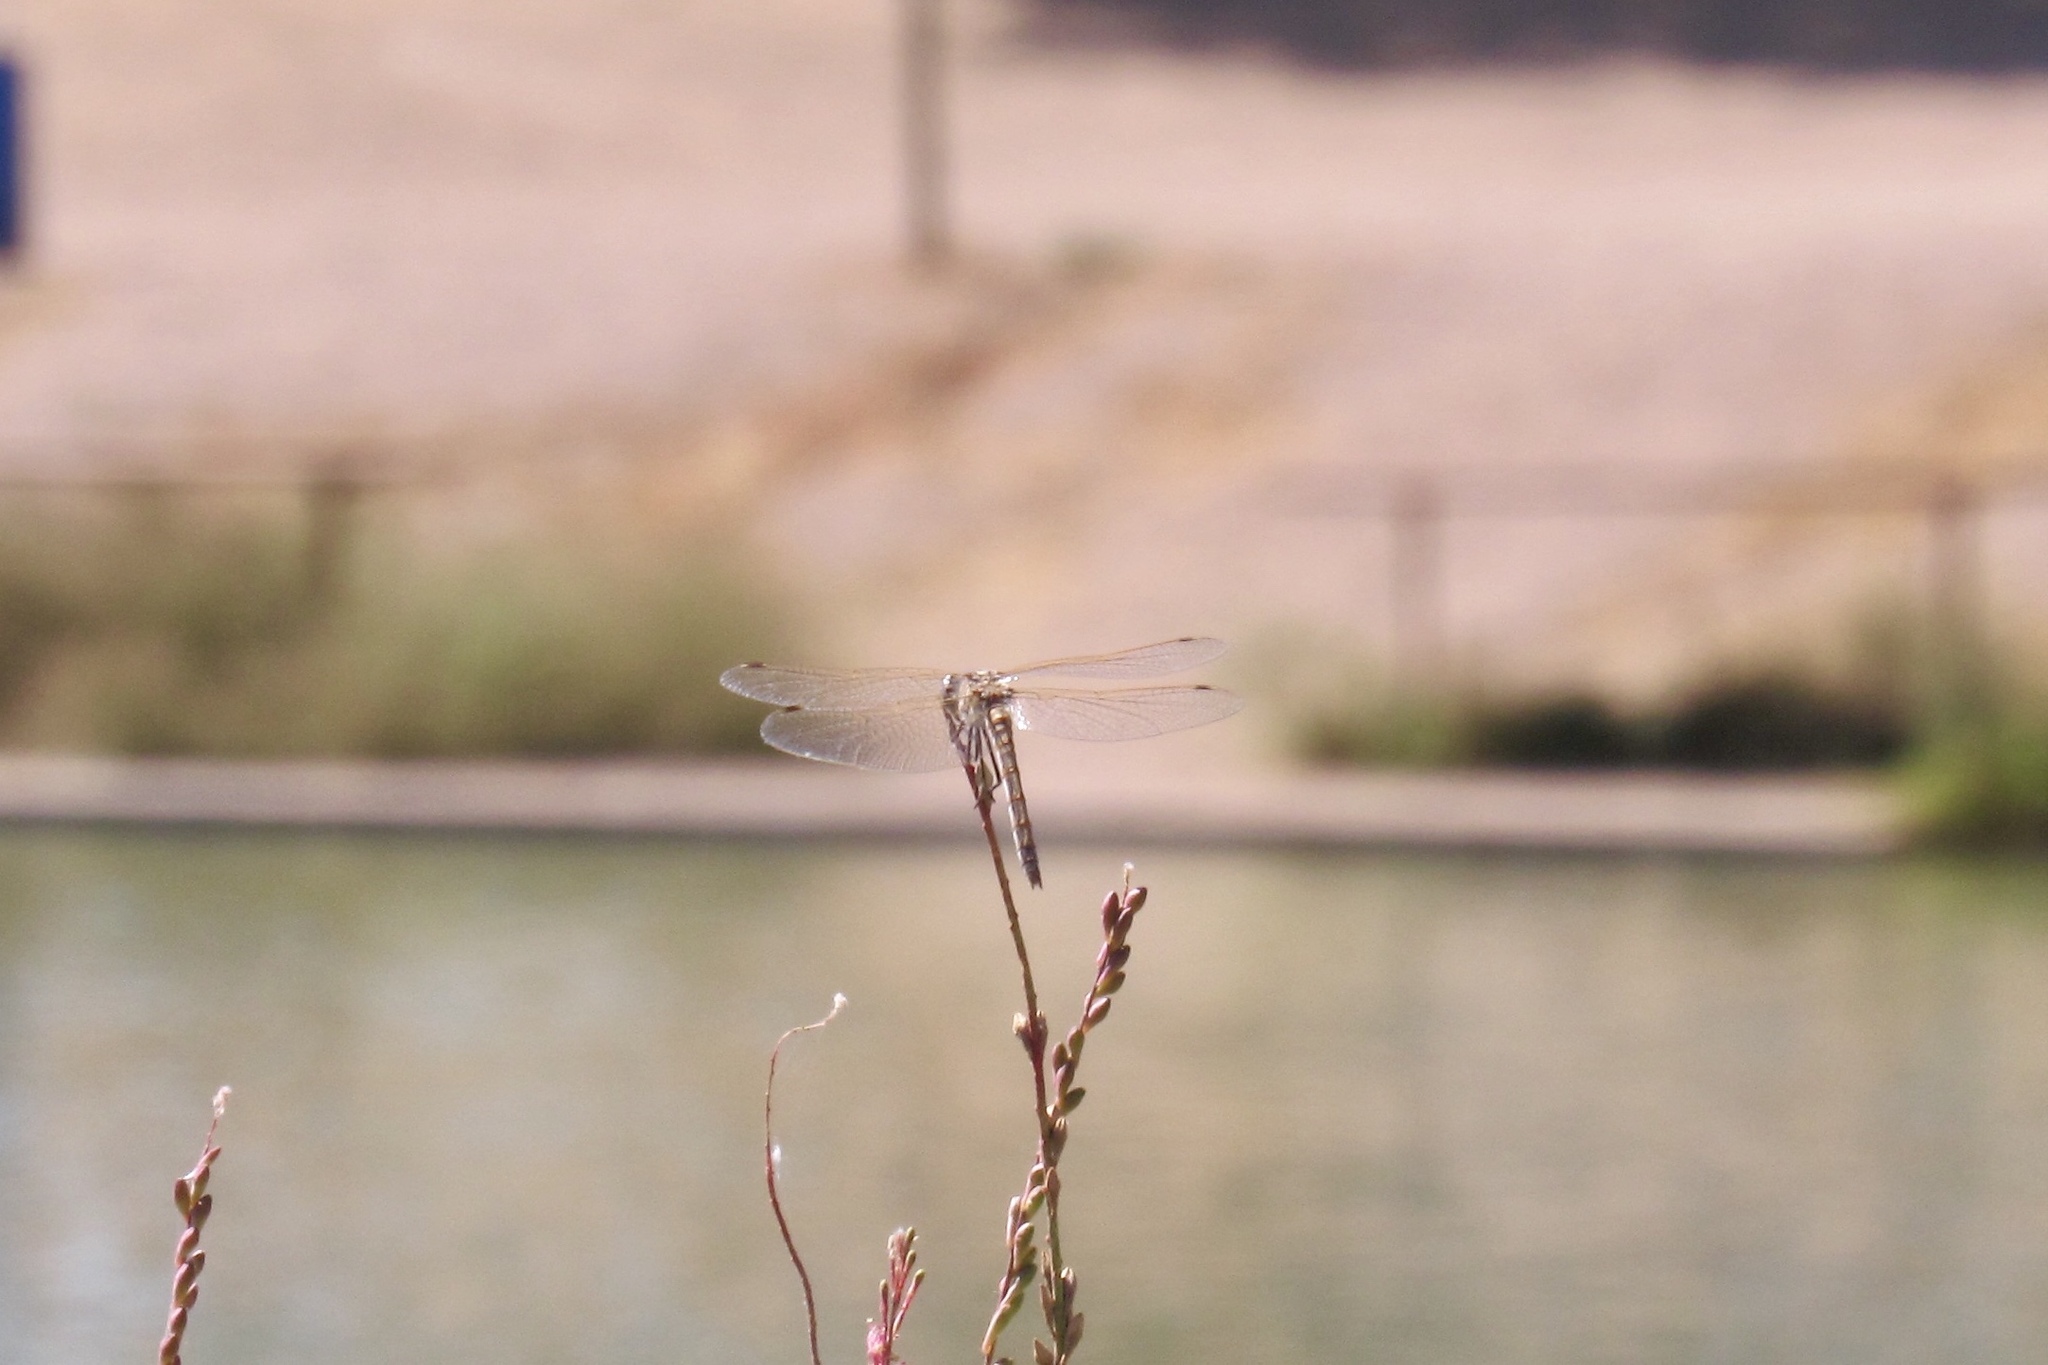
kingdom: Animalia
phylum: Arthropoda
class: Insecta
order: Odonata
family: Libellulidae
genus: Sympetrum
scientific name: Sympetrum corruptum
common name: Variegated meadowhawk
